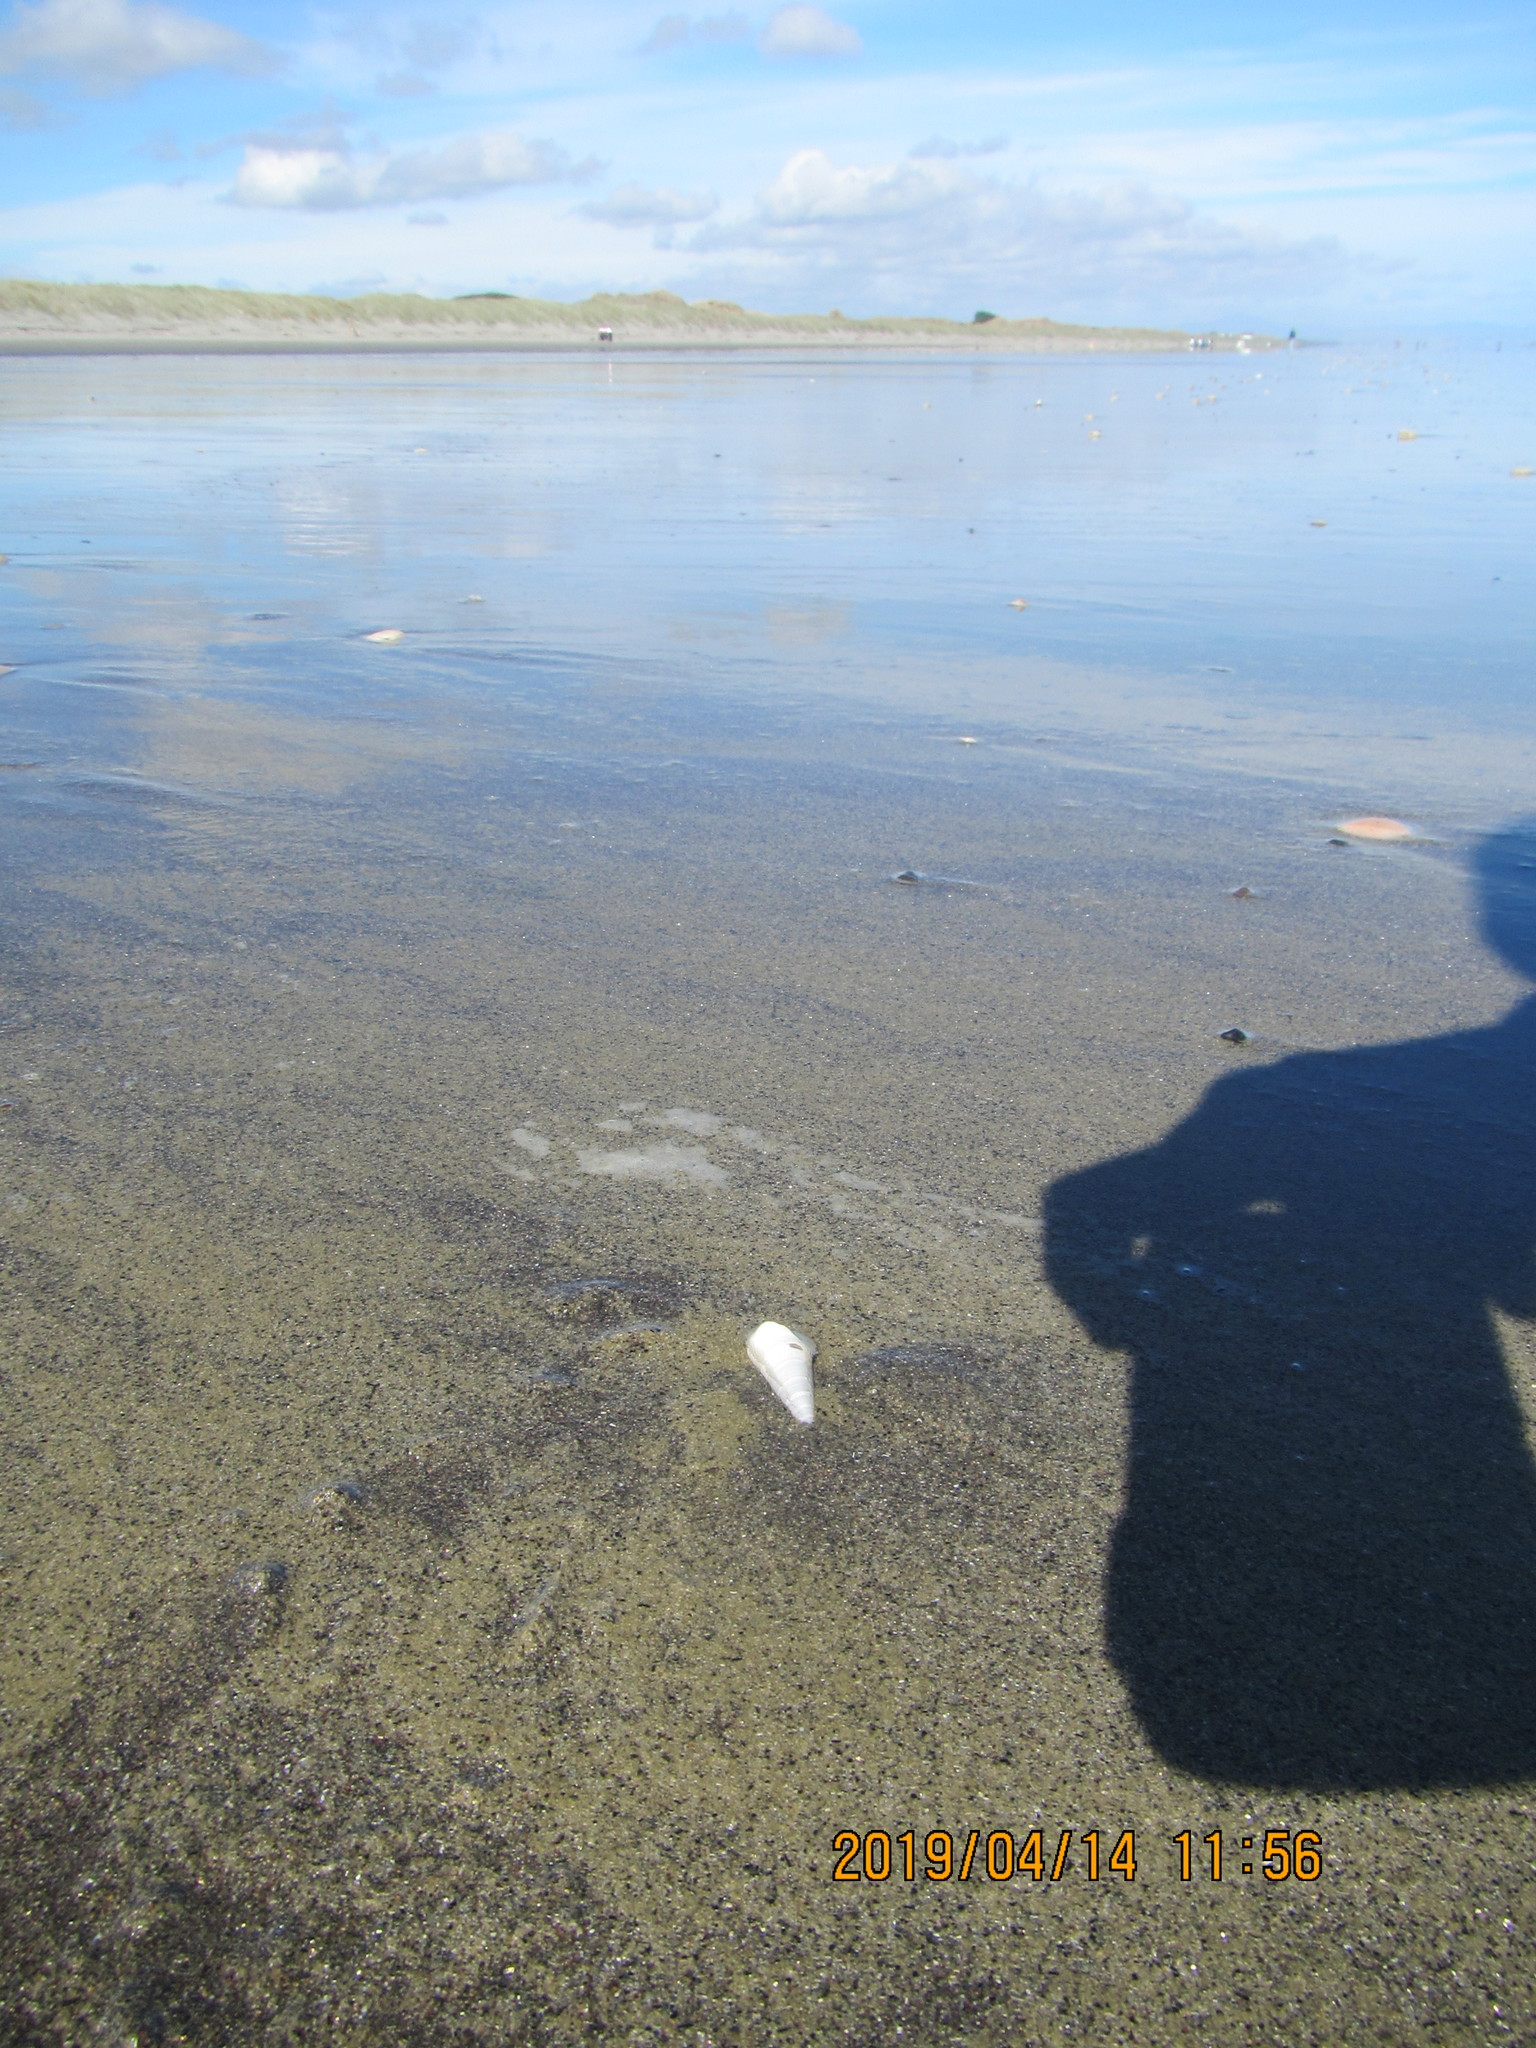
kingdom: Animalia
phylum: Mollusca
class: Gastropoda
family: Turritellidae
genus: Maoricolpus
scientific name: Maoricolpus roseus
